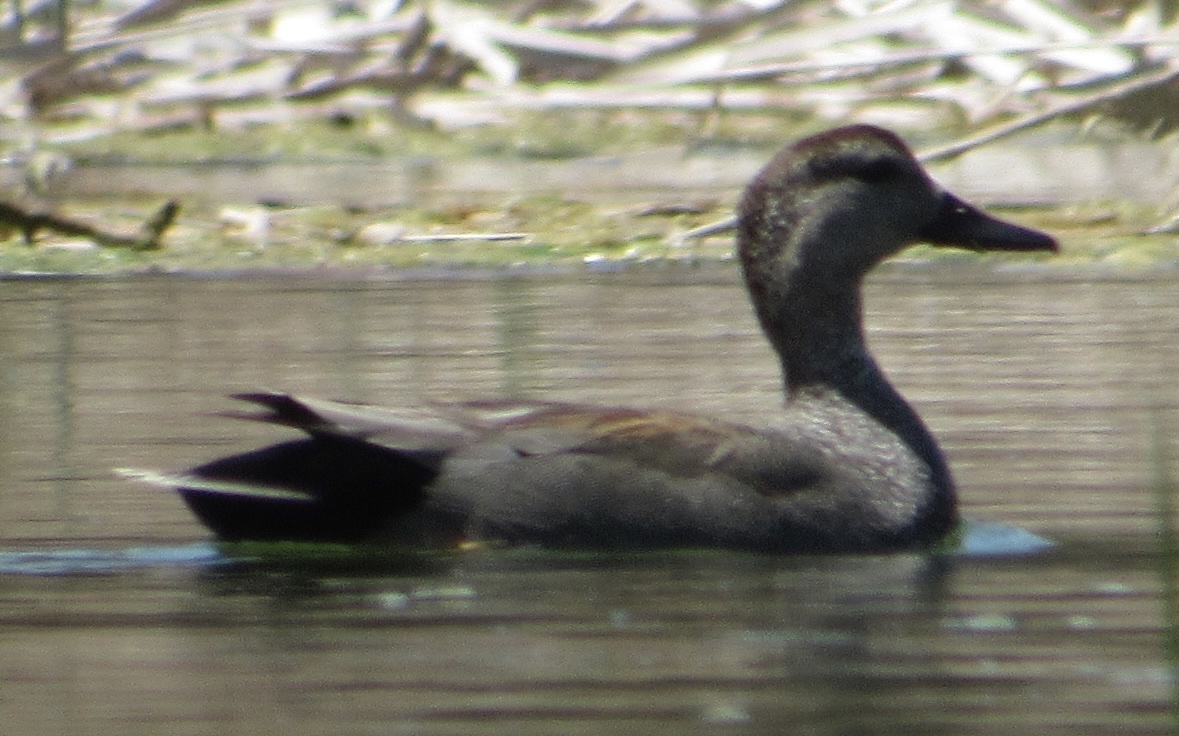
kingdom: Animalia
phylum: Chordata
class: Aves
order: Anseriformes
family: Anatidae
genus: Mareca
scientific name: Mareca strepera
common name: Gadwall
